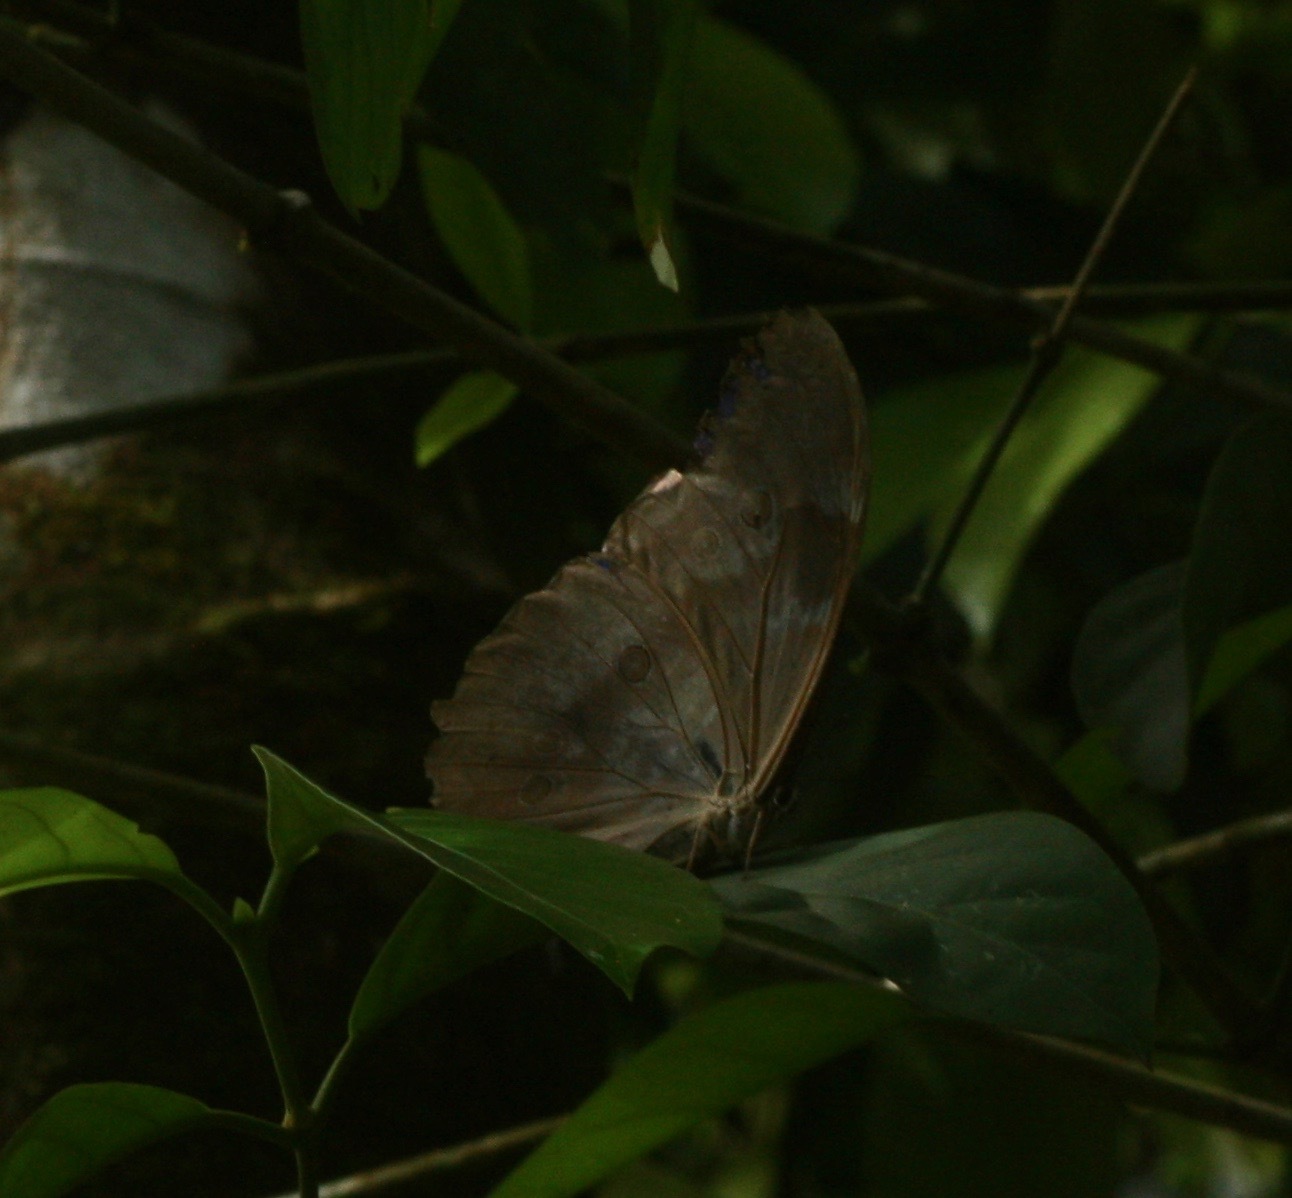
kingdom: Animalia
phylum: Arthropoda
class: Insecta
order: Lepidoptera
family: Nymphalidae
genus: Morpho
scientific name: Morpho amathonte
